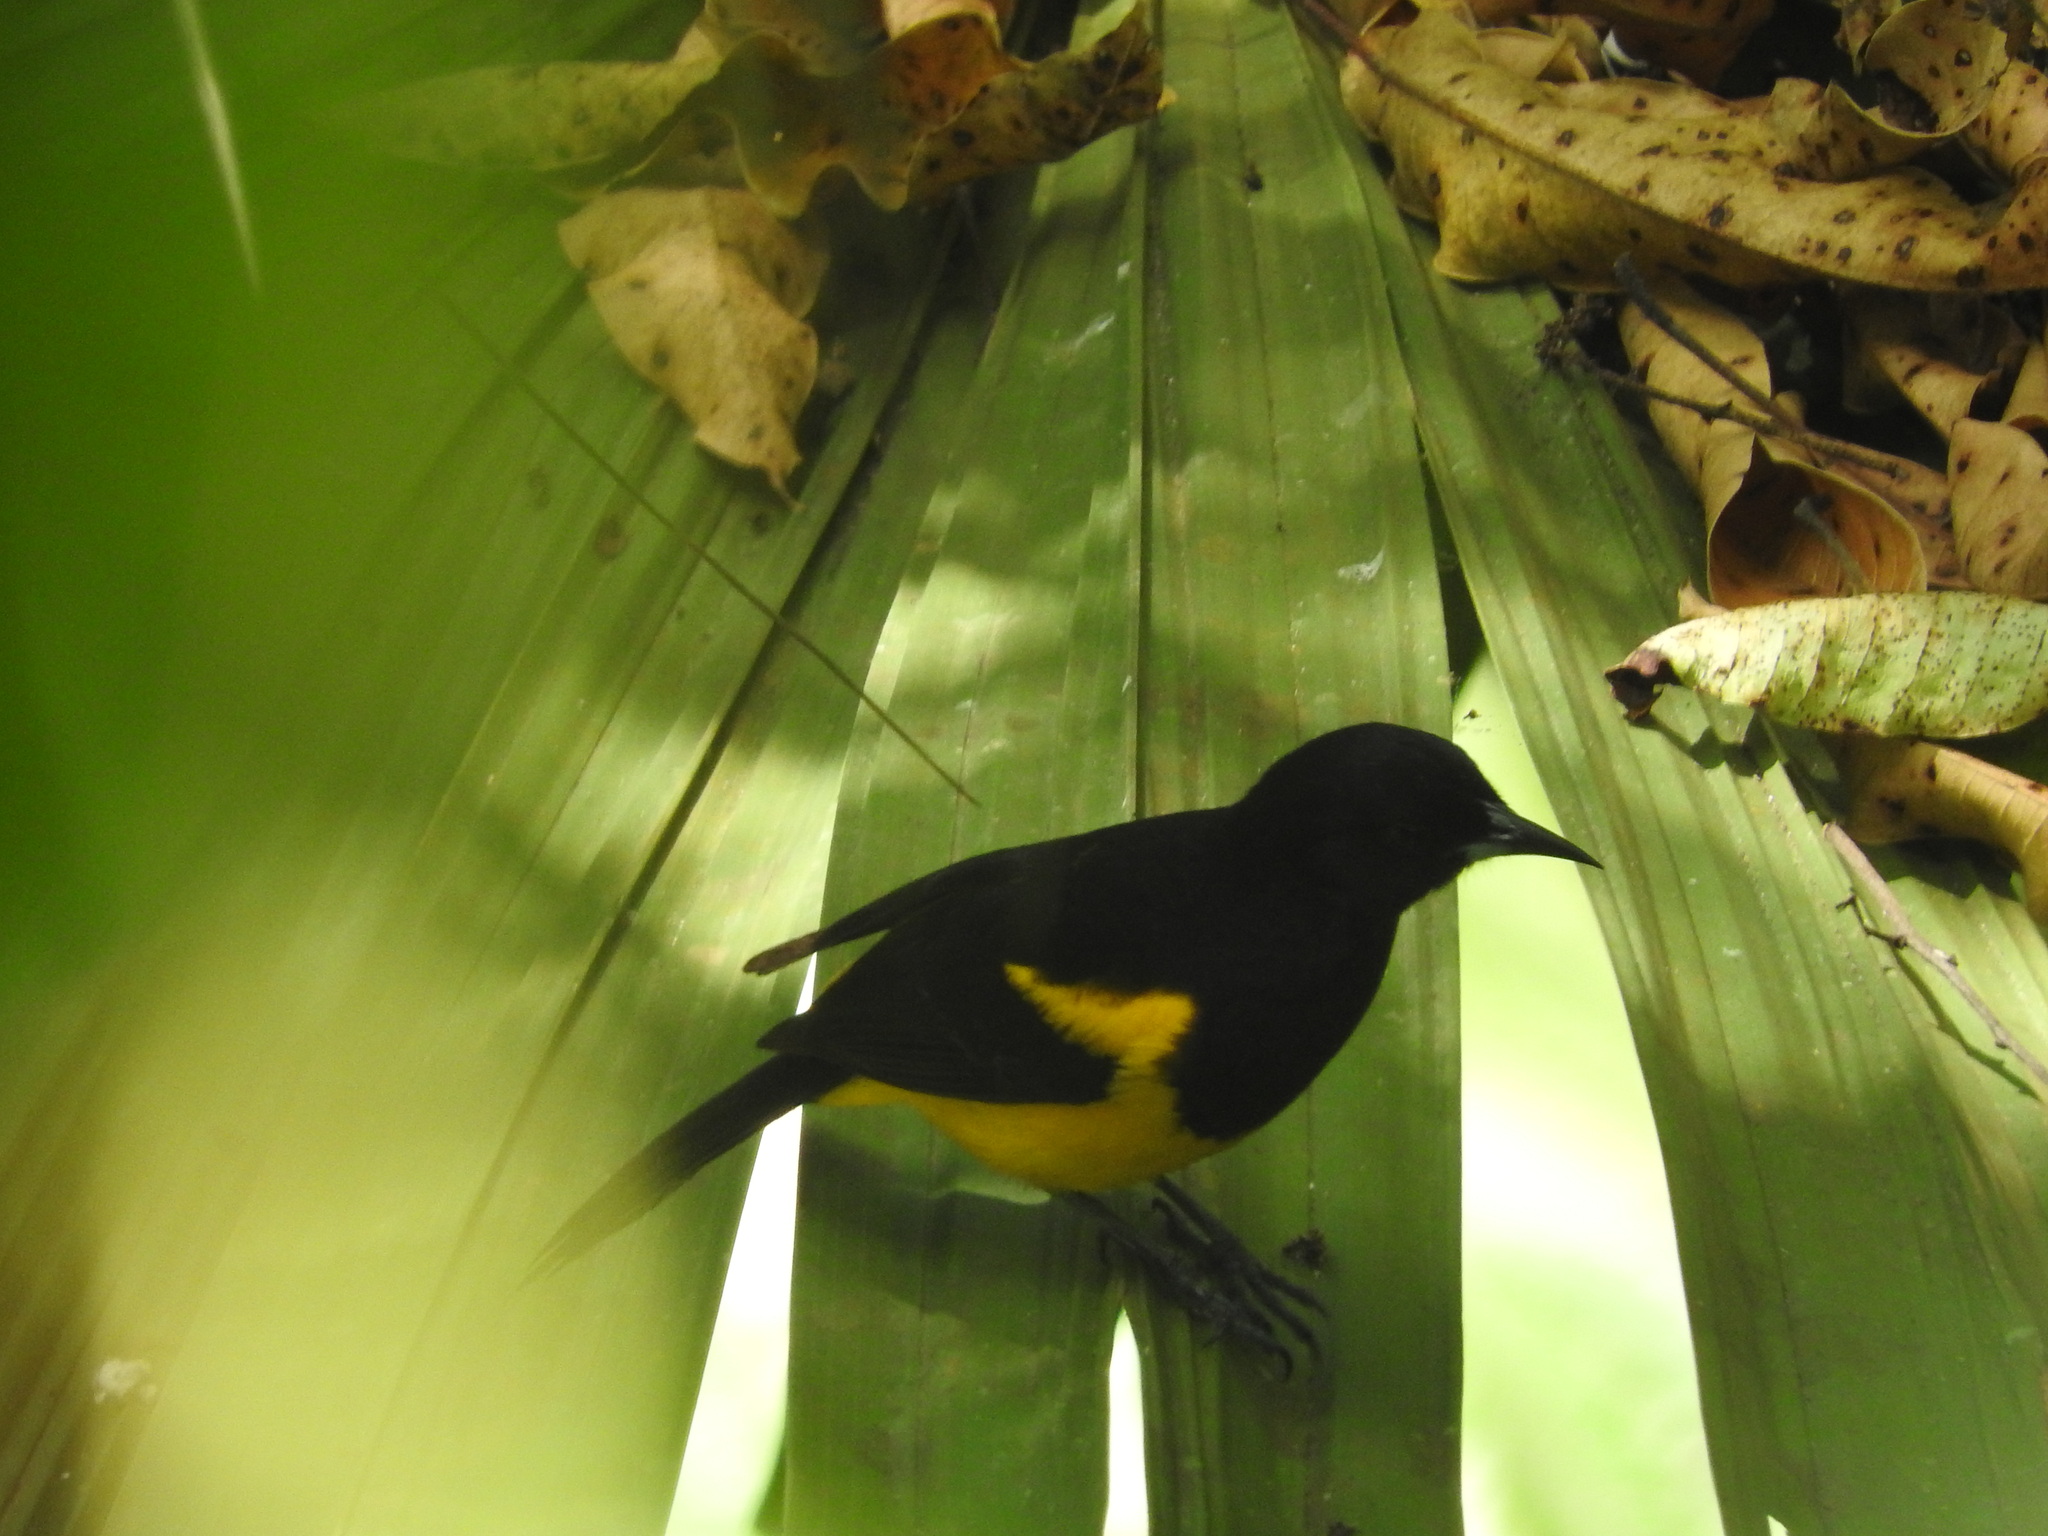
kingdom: Animalia
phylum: Chordata
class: Aves
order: Passeriformes
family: Icteridae
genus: Icterus
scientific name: Icterus prosthemelas
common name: Black-cowled oriole
